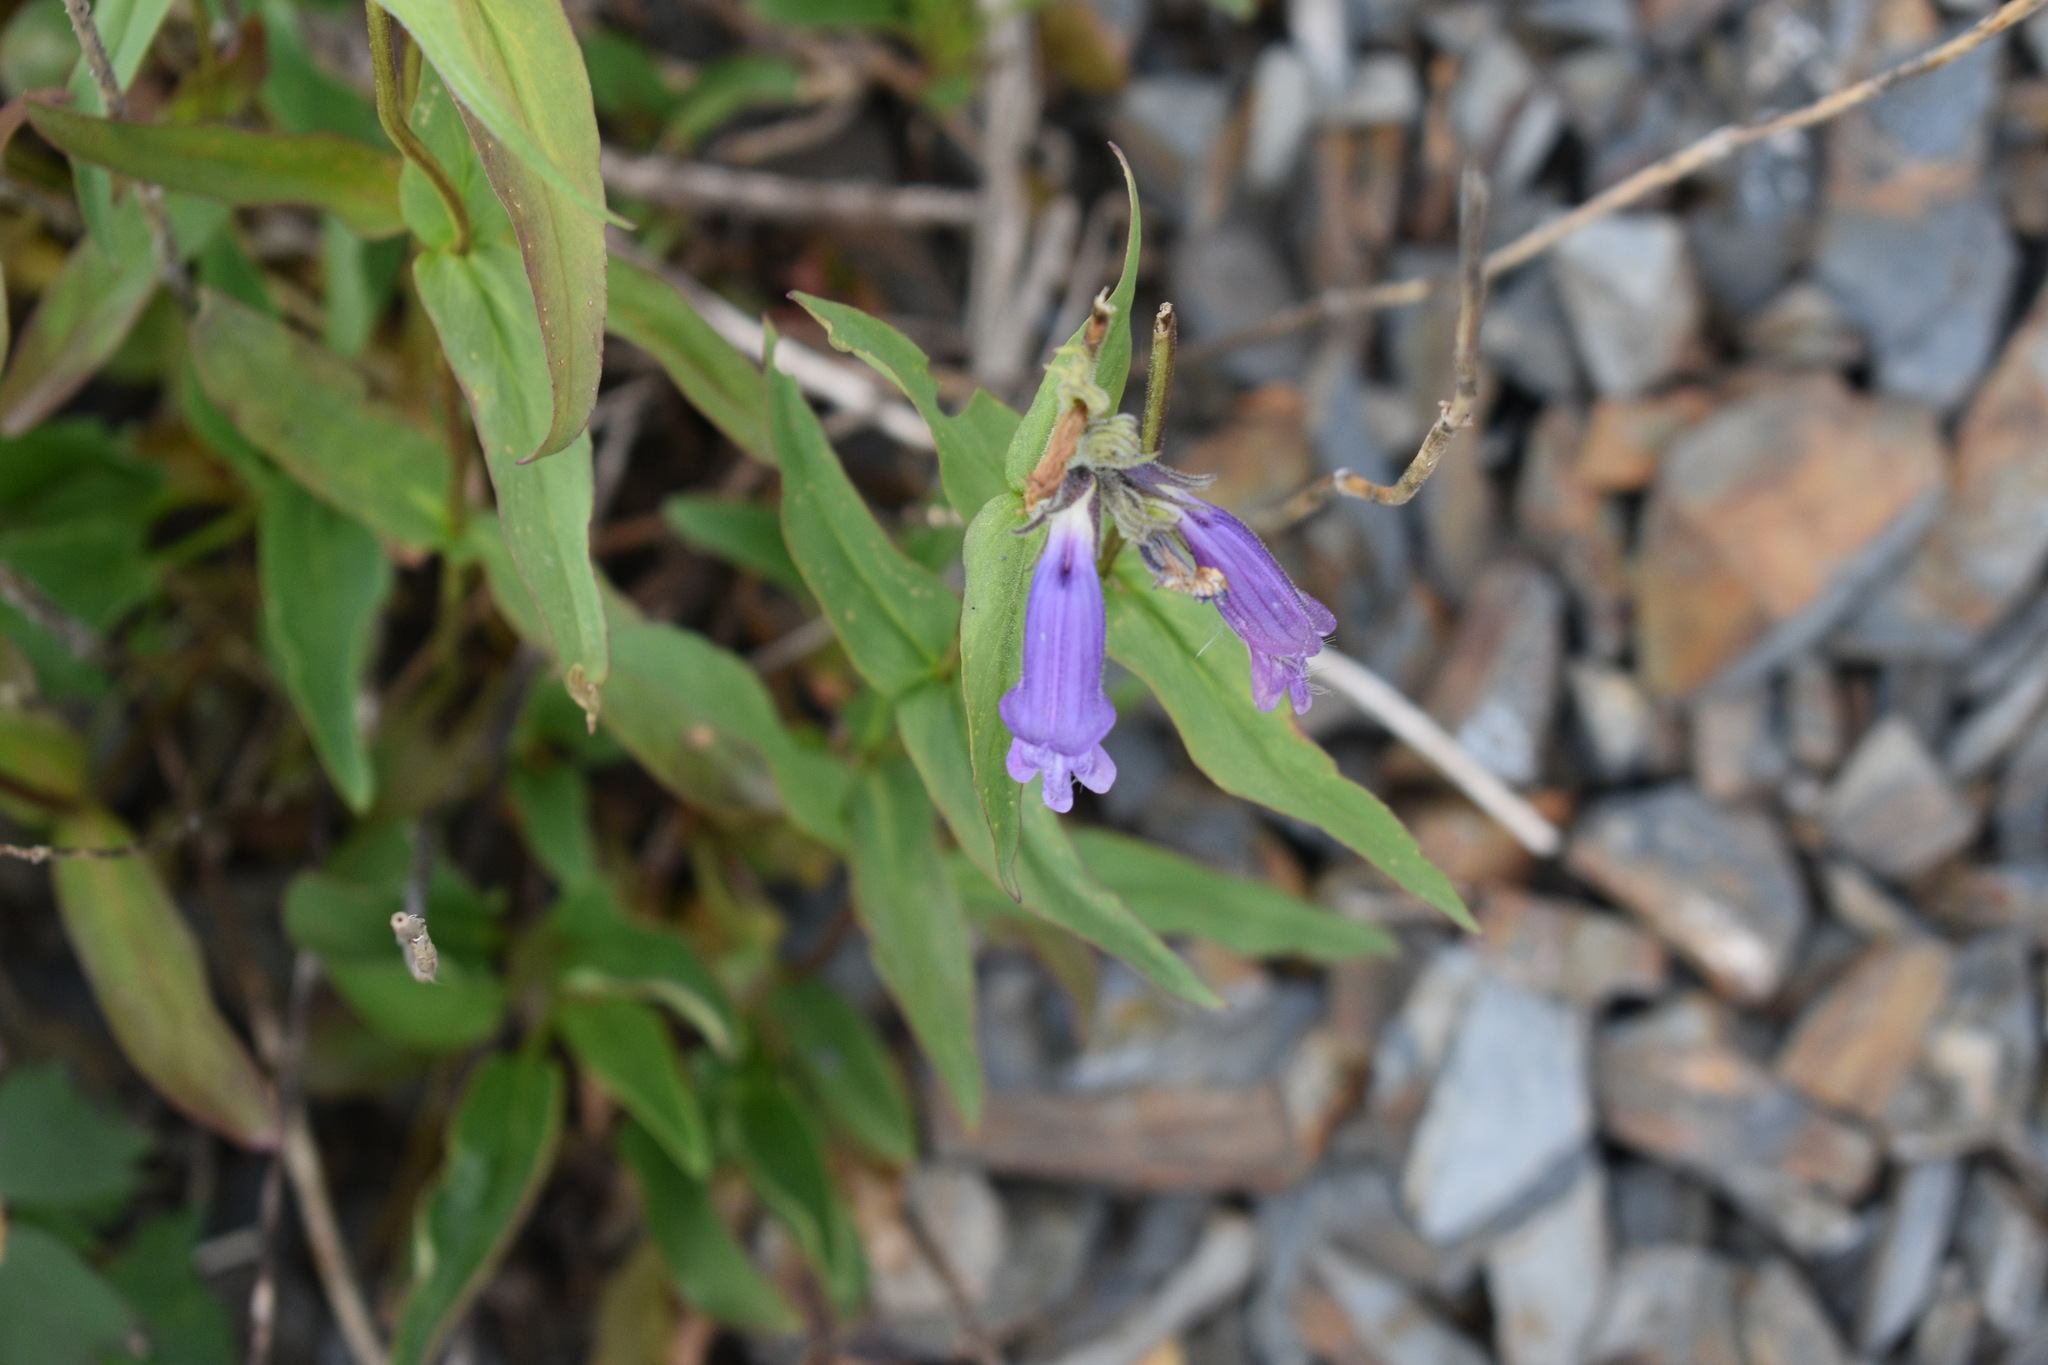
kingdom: Plantae
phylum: Tracheophyta
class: Magnoliopsida
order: Lamiales
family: Plantaginaceae
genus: Penstemon
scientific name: Penstemon whippleanus
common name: Whipple's penstemon
